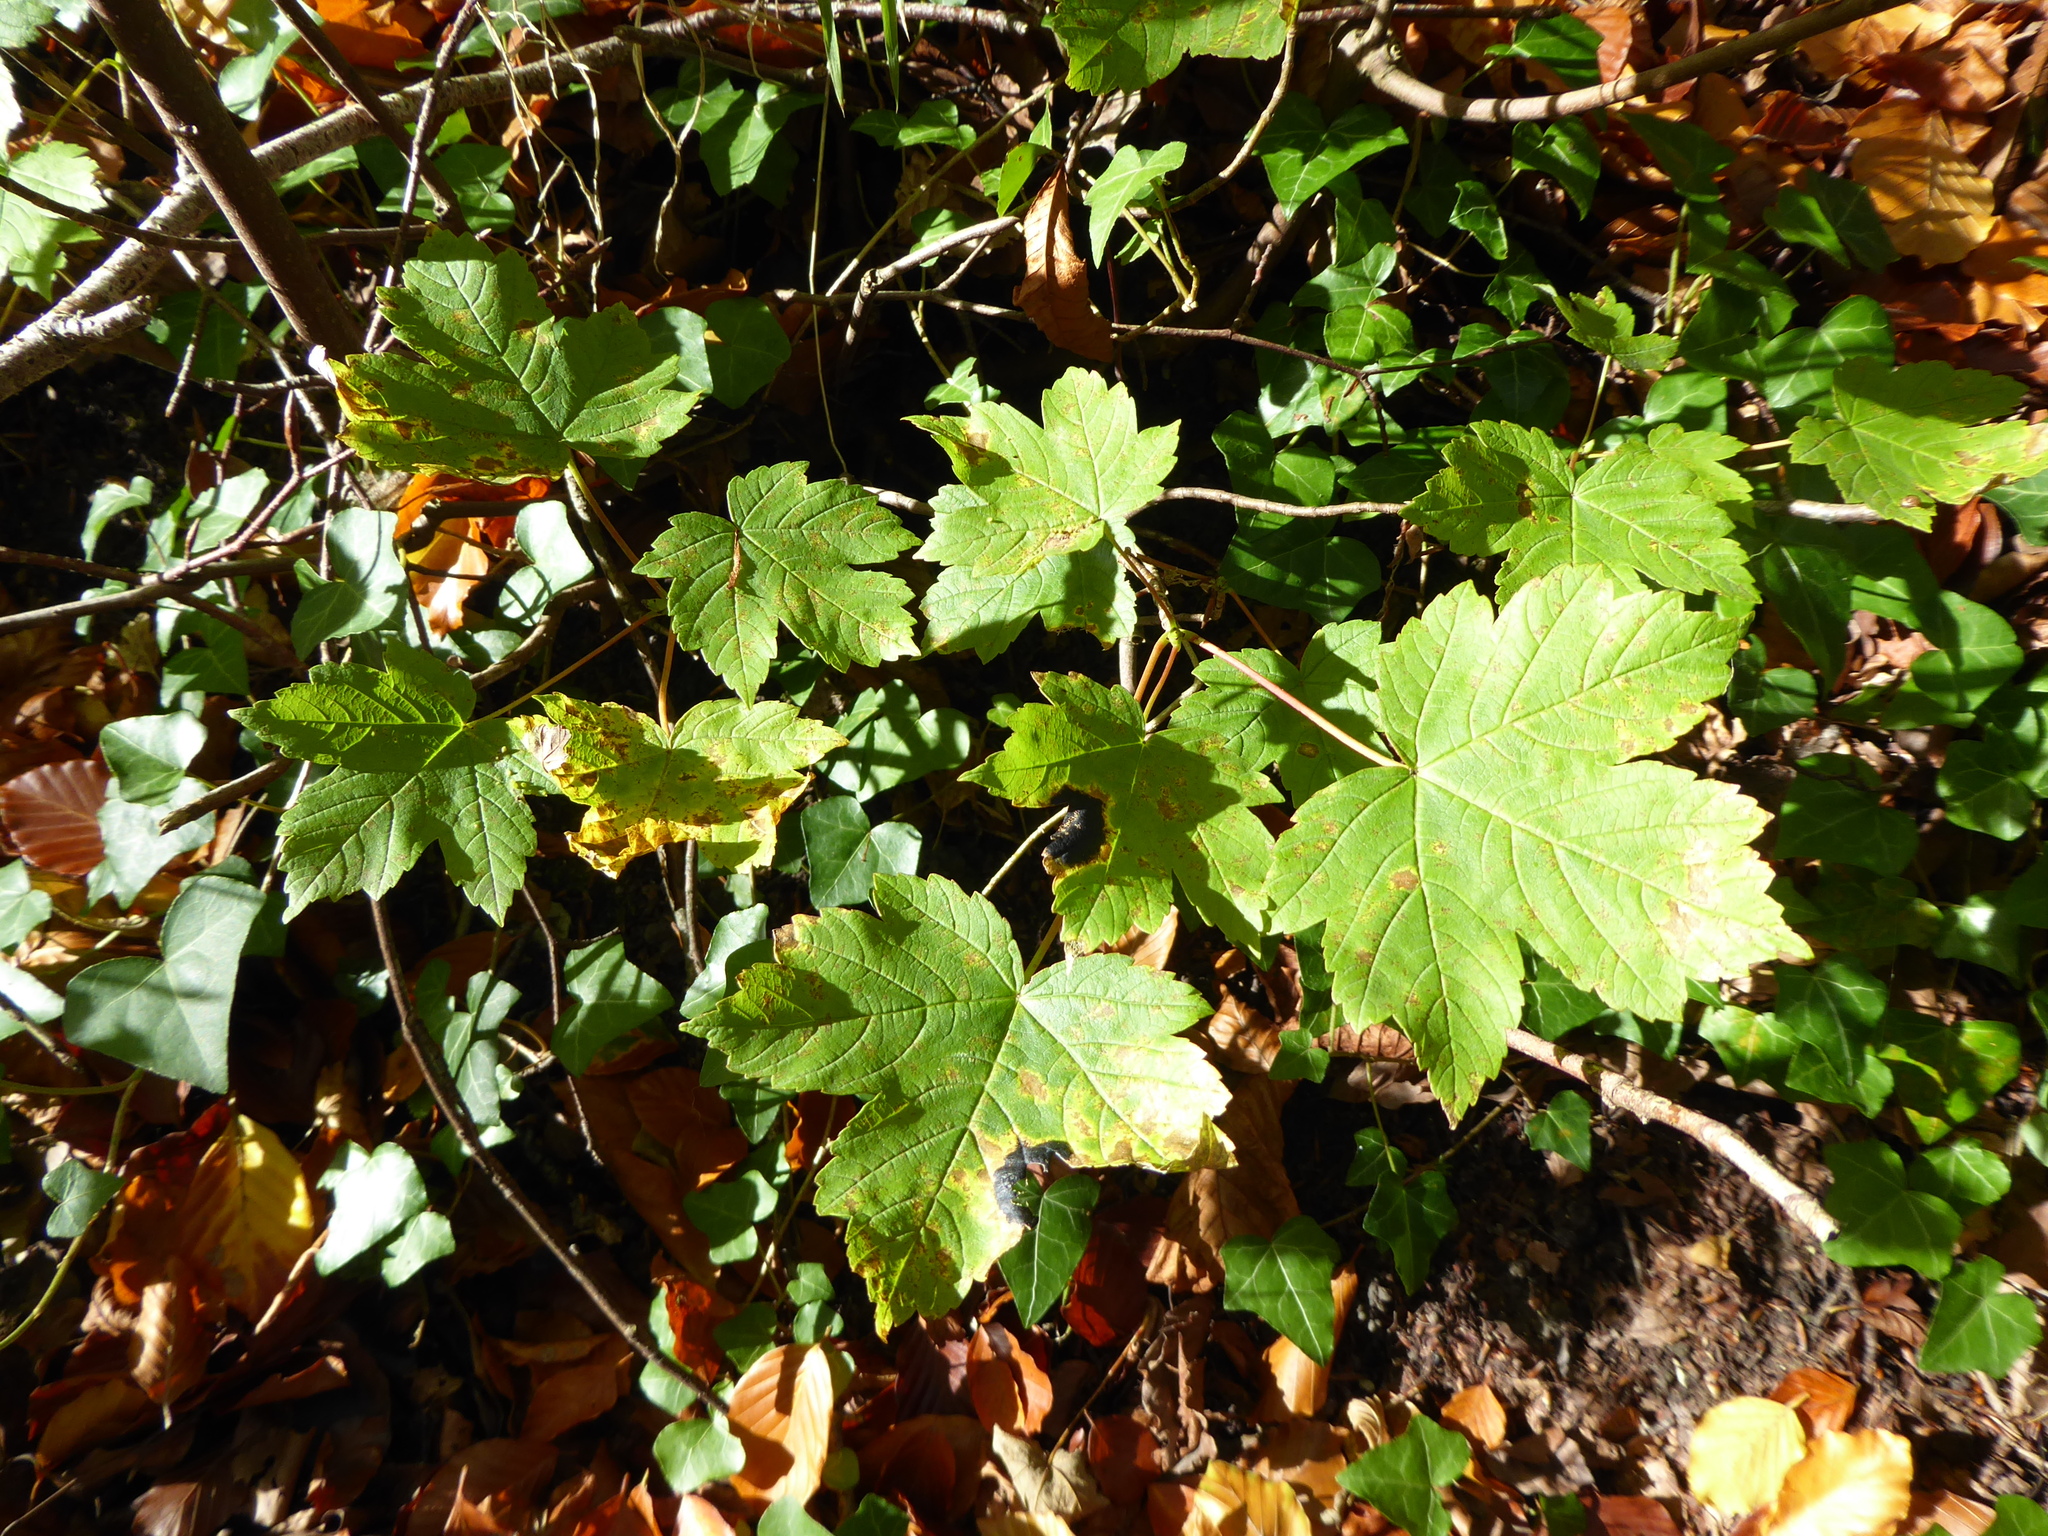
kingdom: Plantae
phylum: Tracheophyta
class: Magnoliopsida
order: Sapindales
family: Sapindaceae
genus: Acer
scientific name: Acer pseudoplatanus
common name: Sycamore
